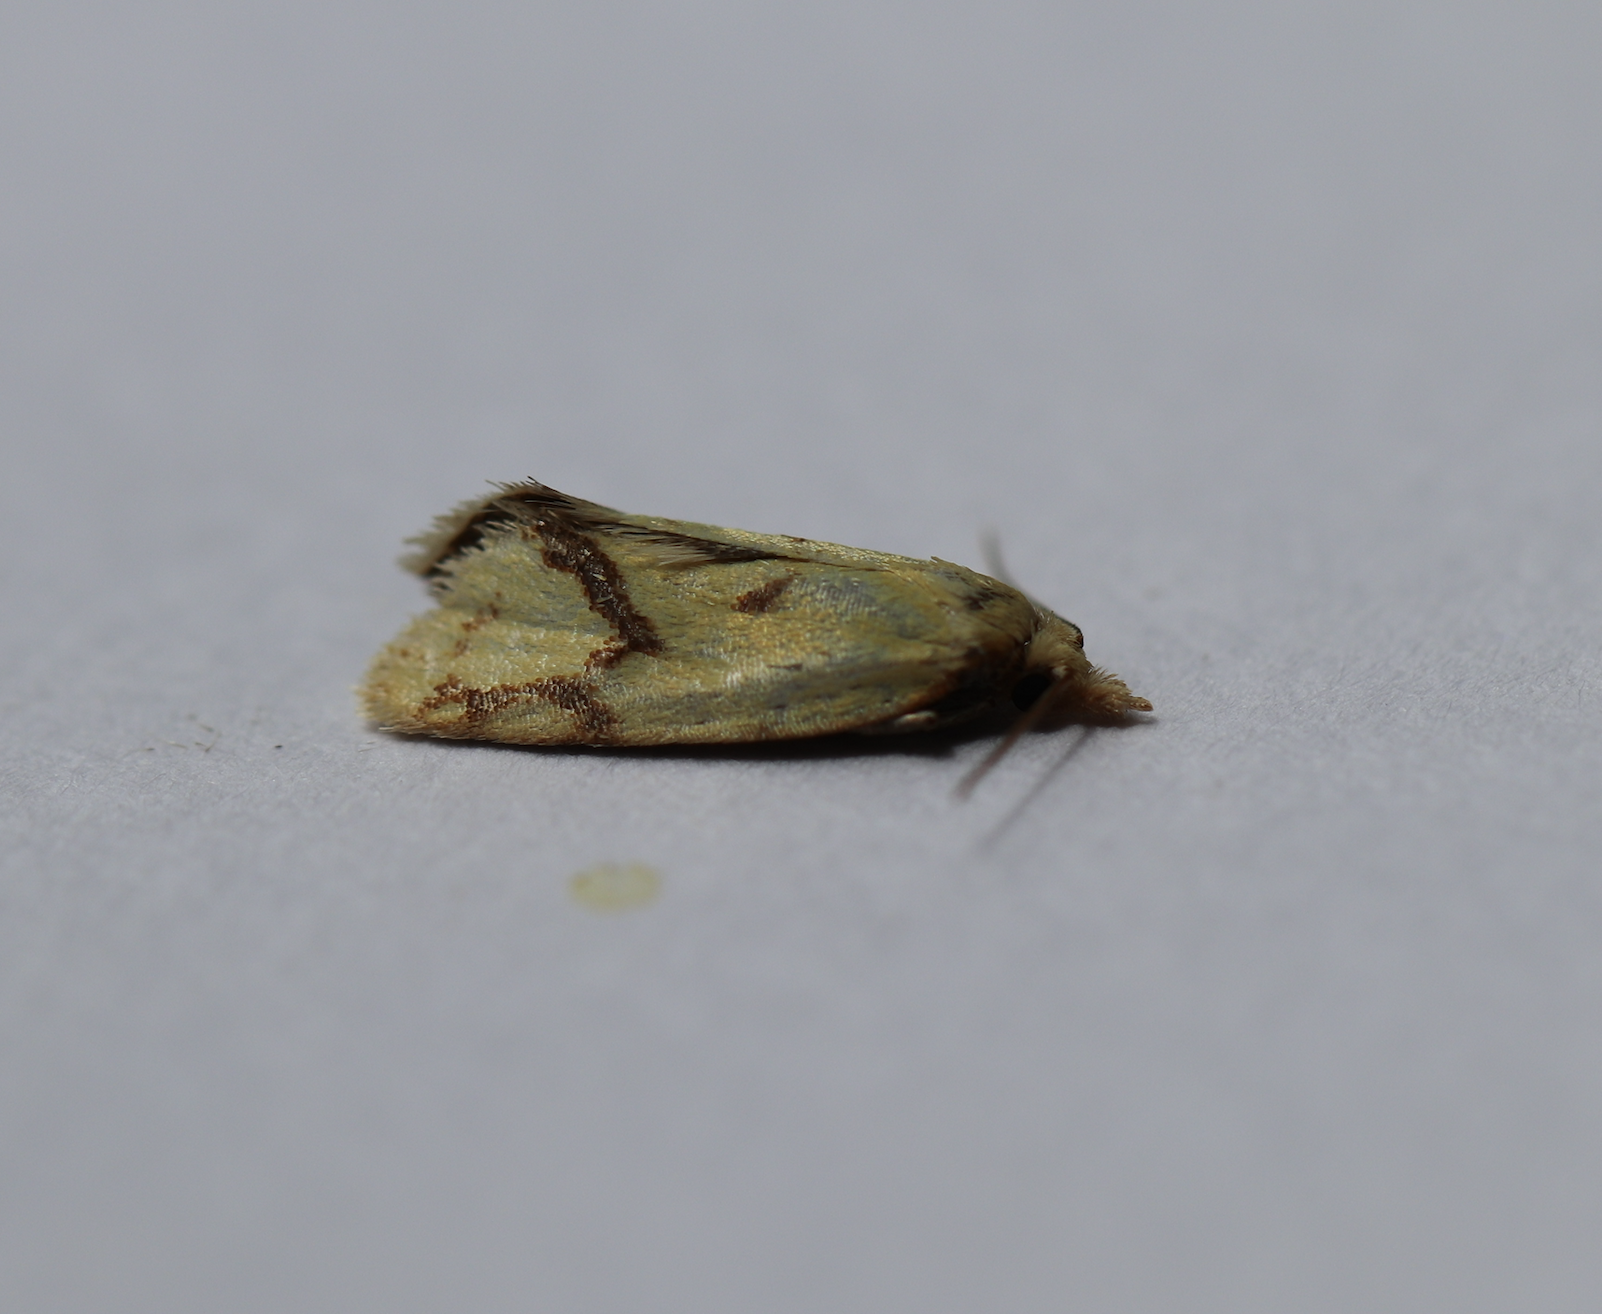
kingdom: Animalia
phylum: Arthropoda
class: Insecta
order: Lepidoptera
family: Tortricidae
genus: Agapeta
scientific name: Agapeta hamana
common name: Common yellow conch
